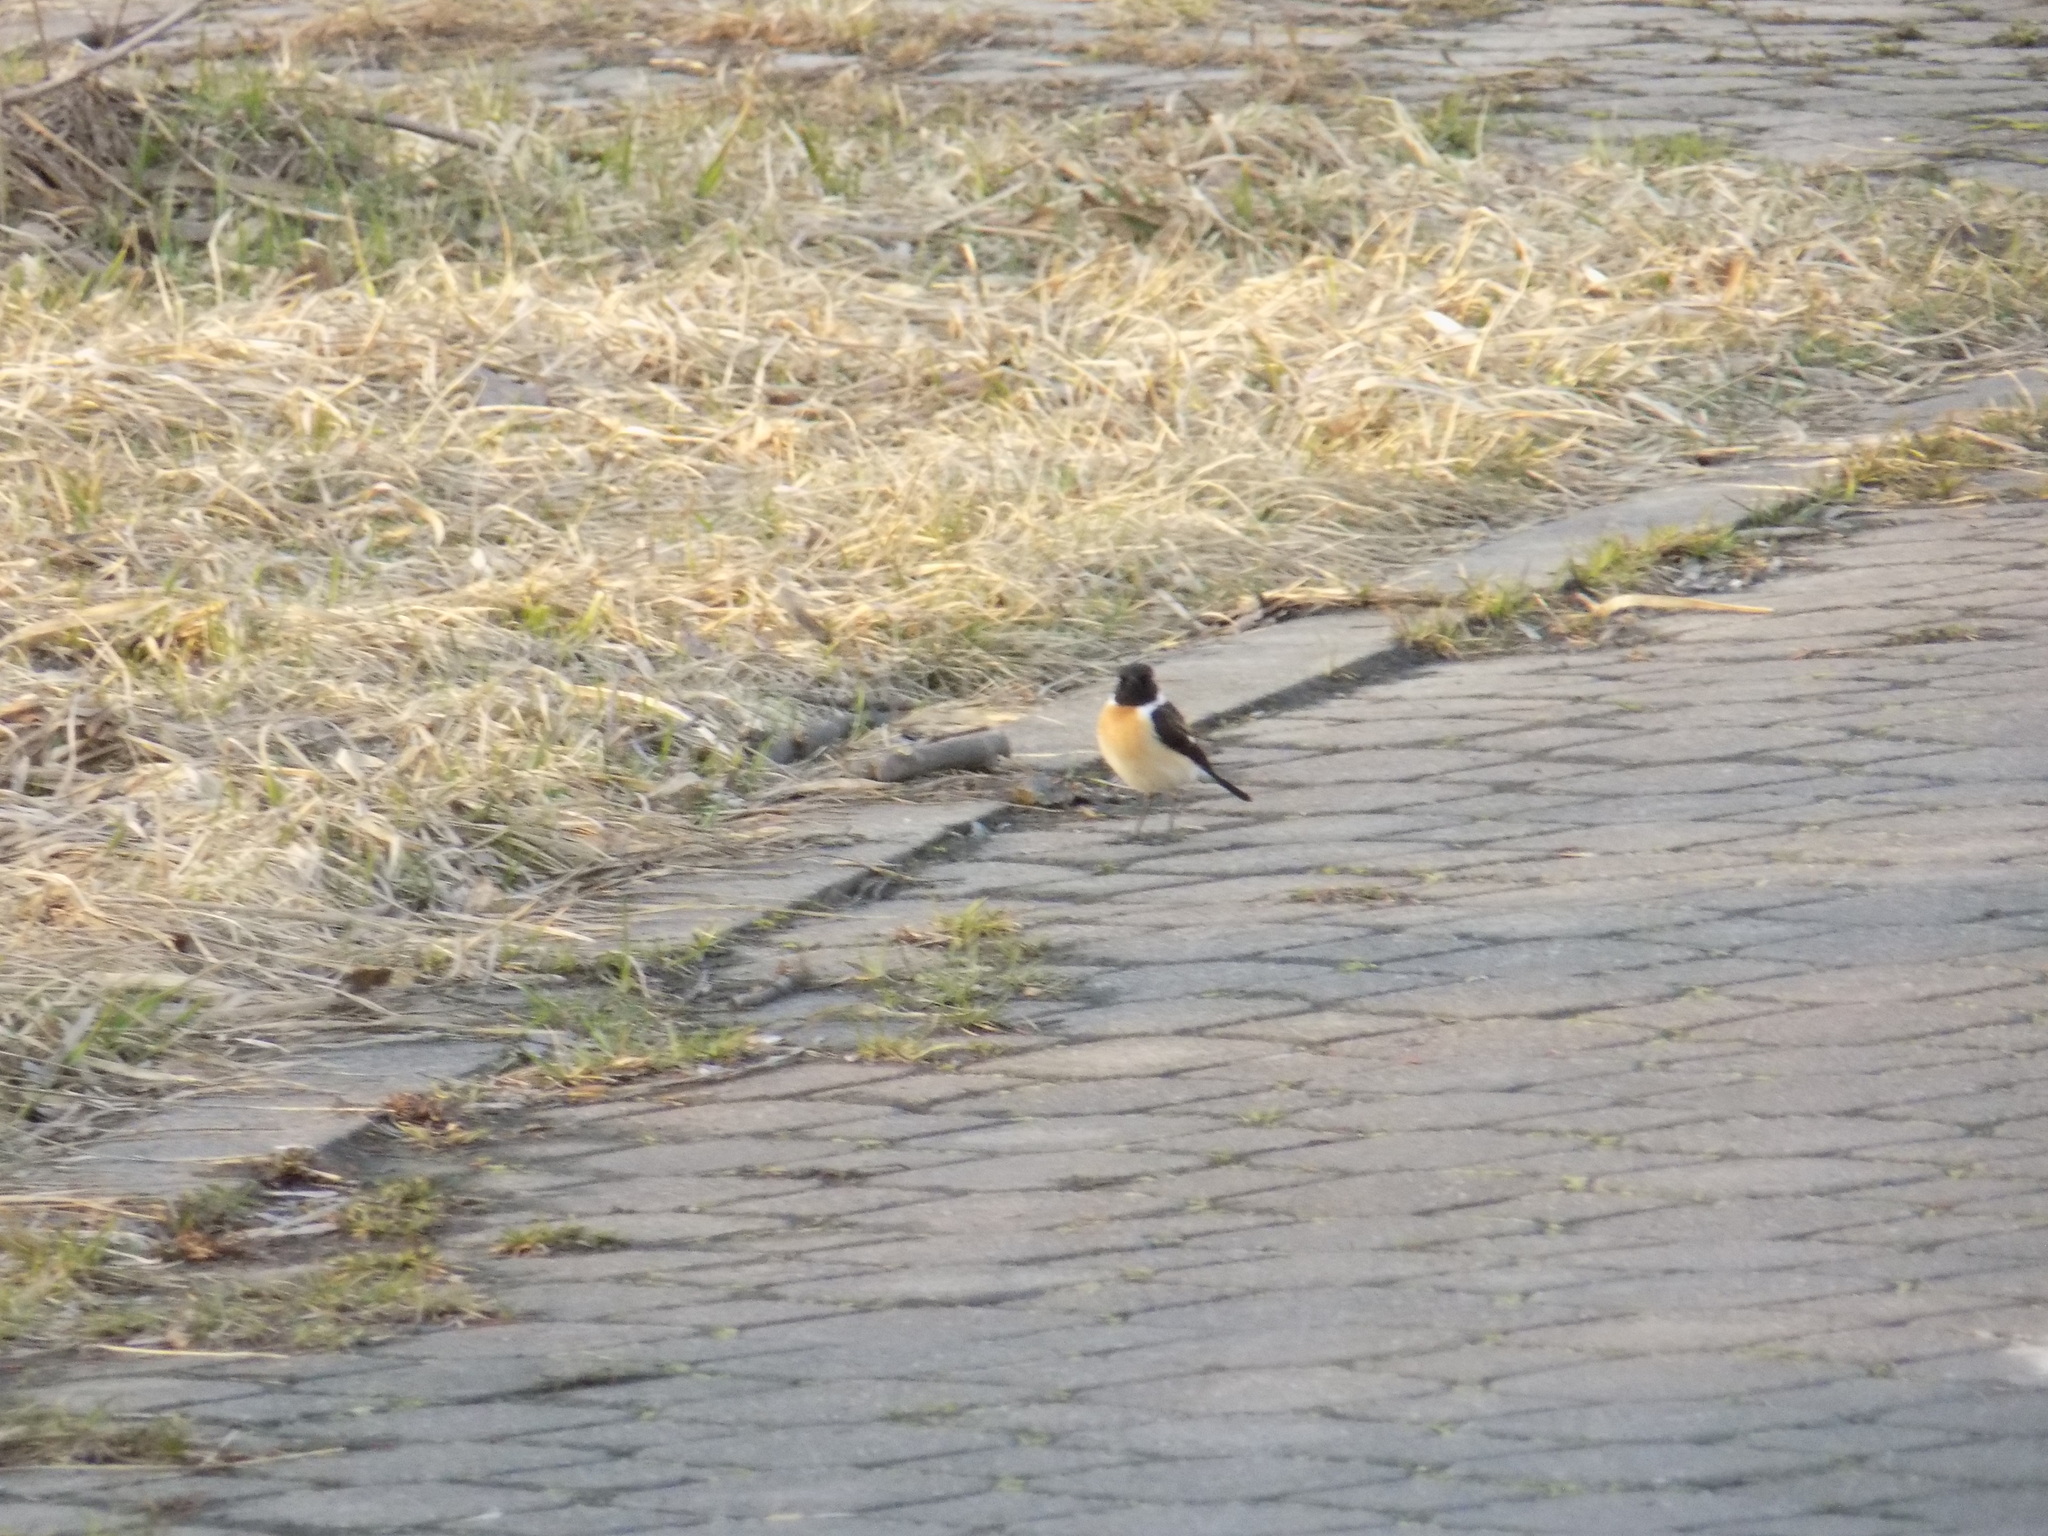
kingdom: Animalia
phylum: Chordata
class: Aves
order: Passeriformes
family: Muscicapidae
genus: Saxicola
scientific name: Saxicola maurus
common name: Siberian stonechat
